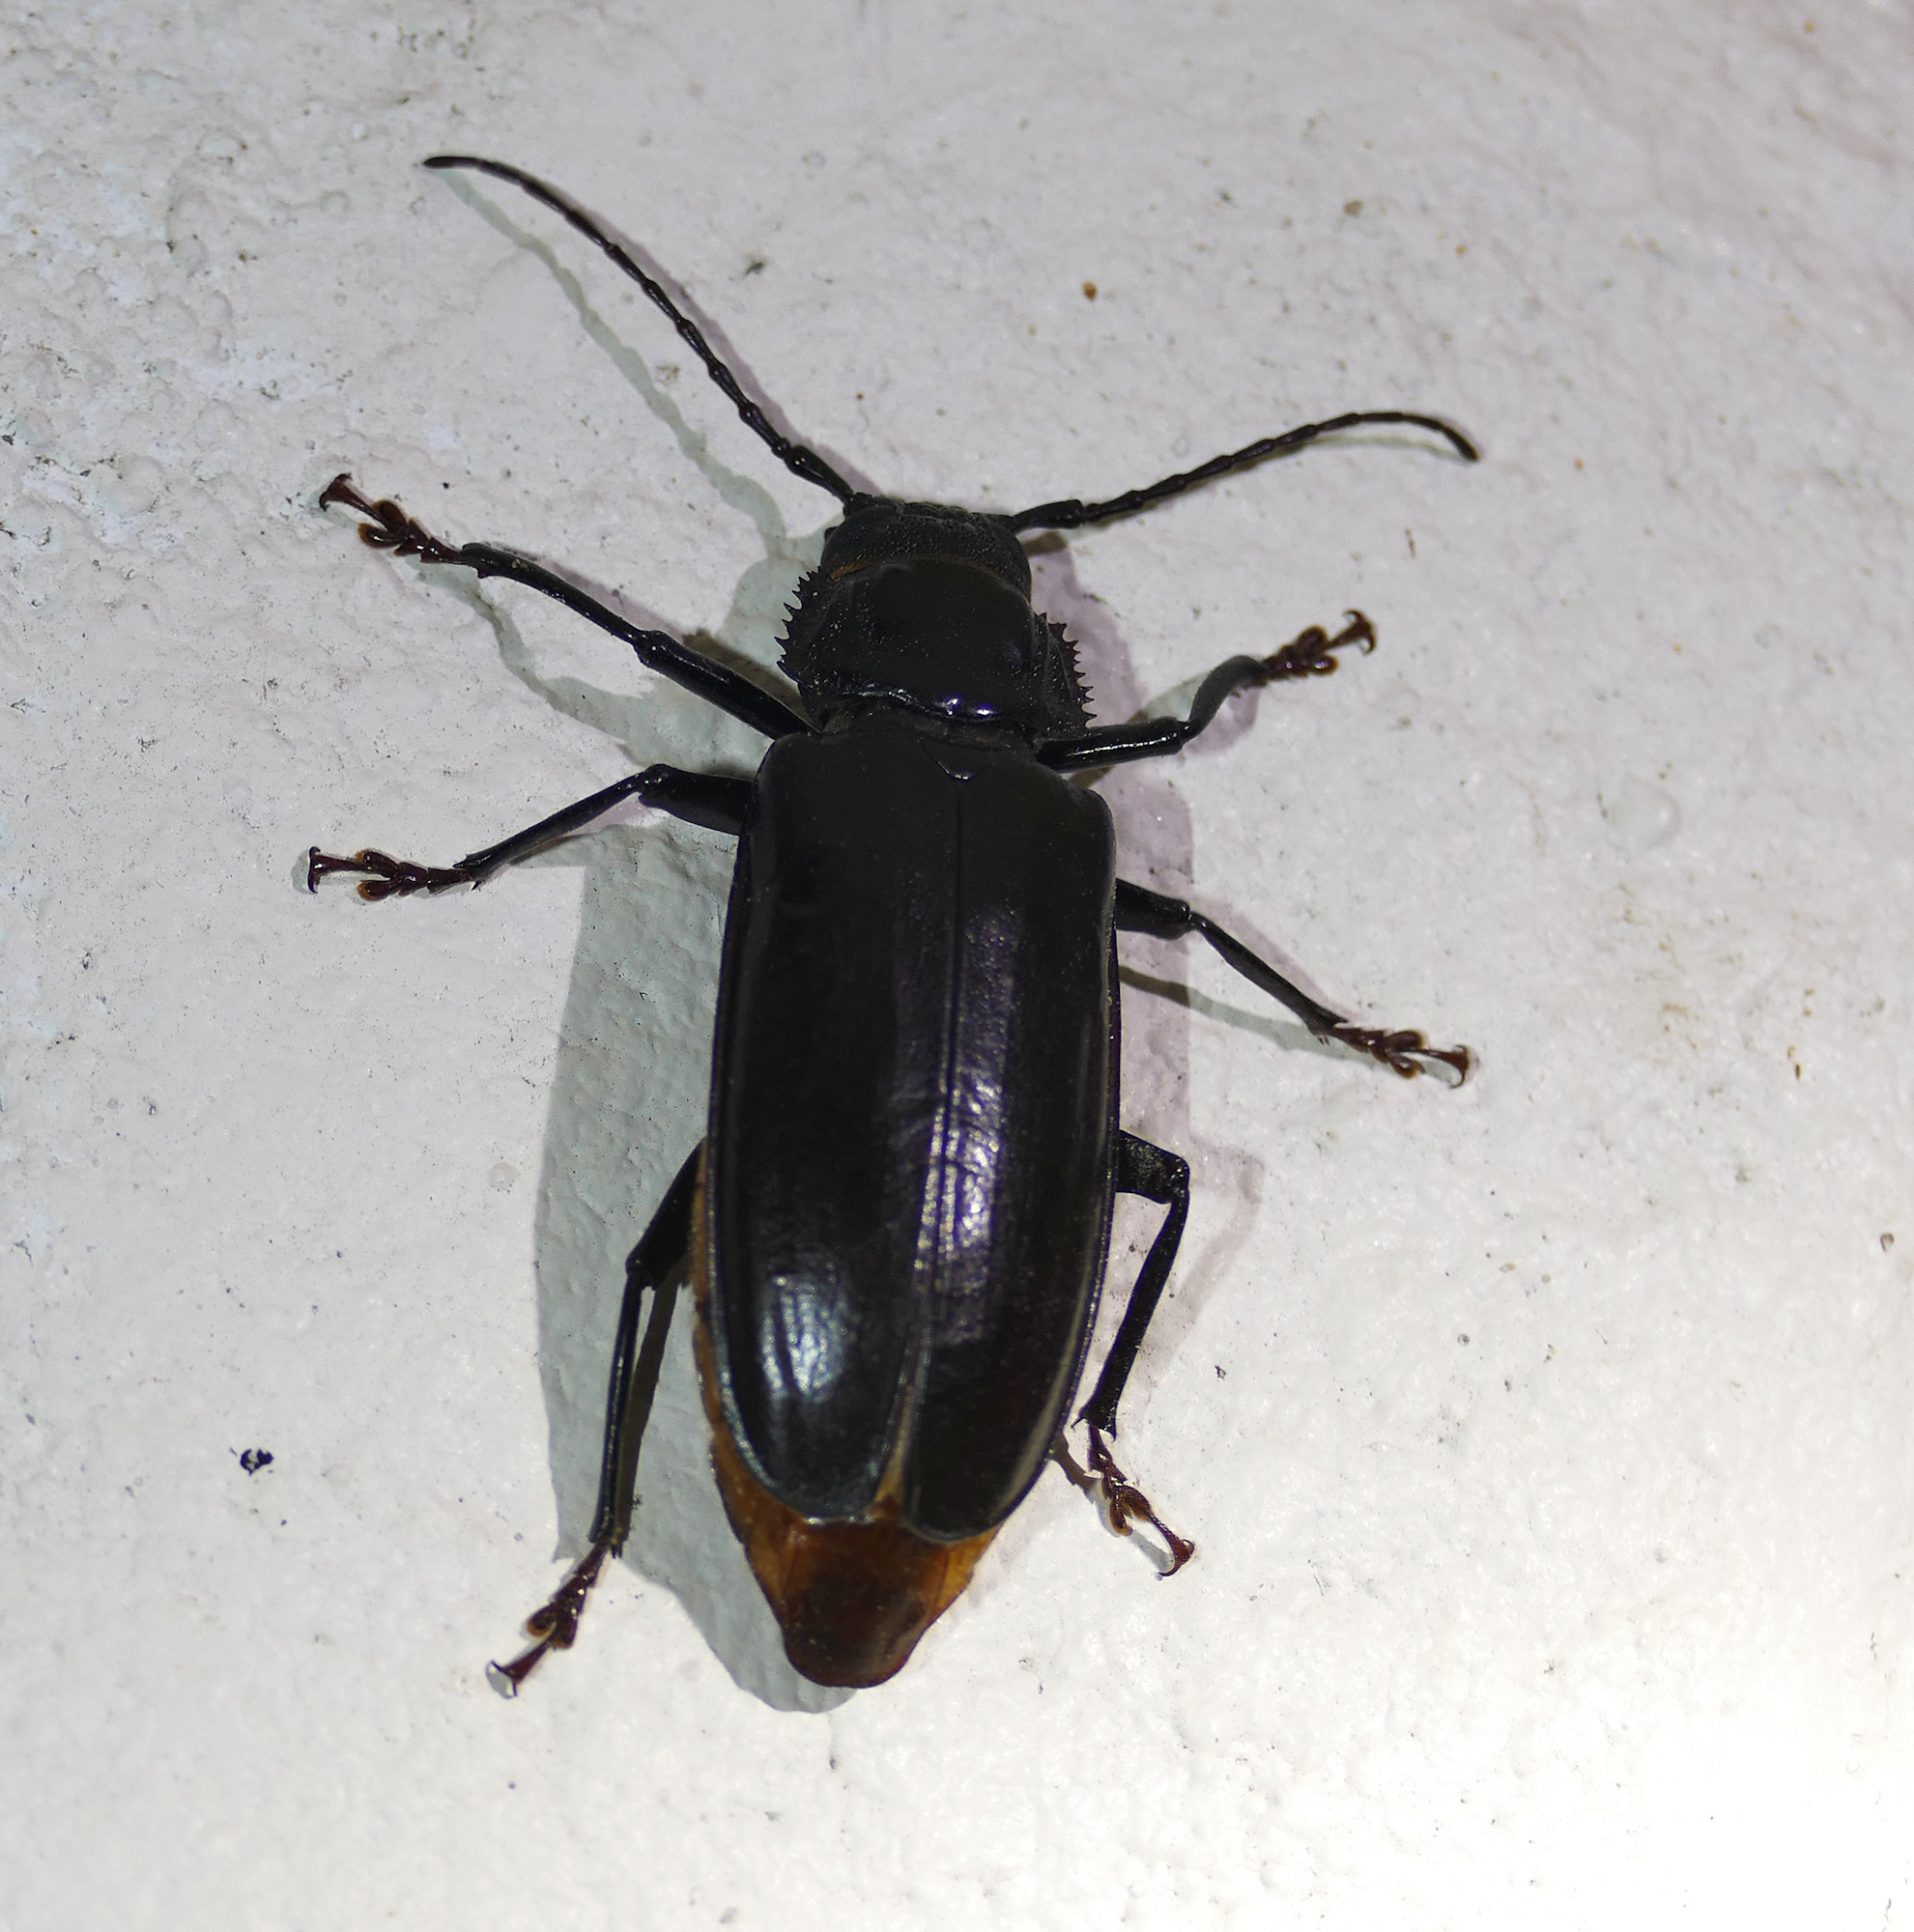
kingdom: Animalia
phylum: Arthropoda
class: Insecta
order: Coleoptera
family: Cerambycidae
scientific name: Cerambycidae
